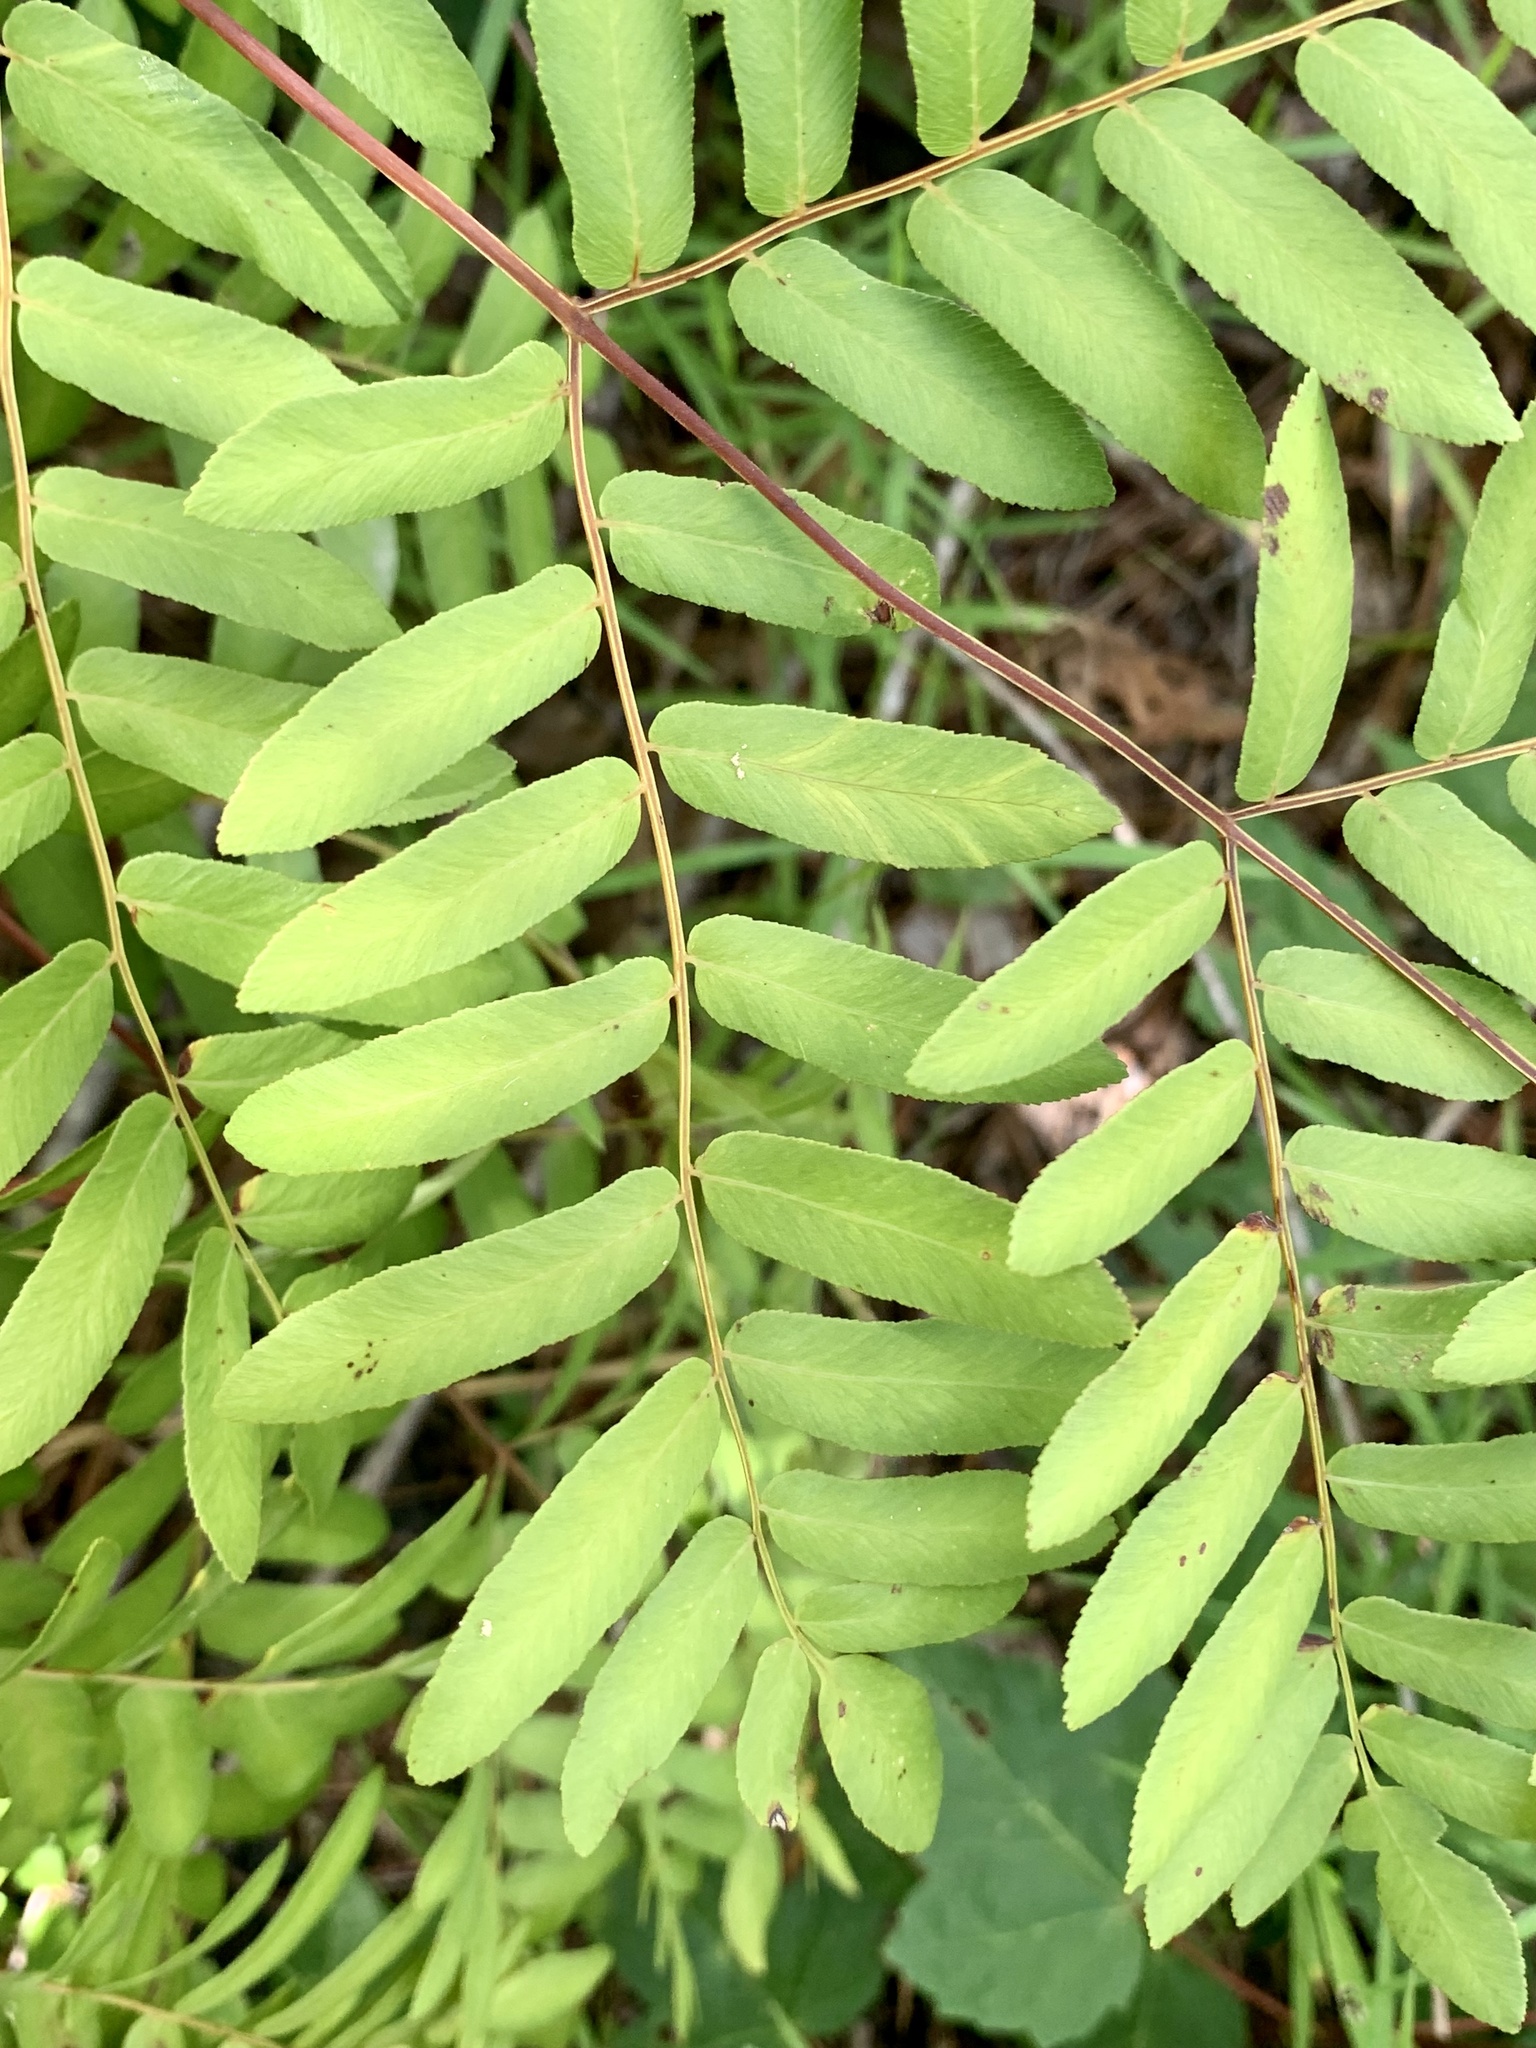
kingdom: Plantae
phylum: Tracheophyta
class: Polypodiopsida
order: Osmundales
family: Osmundaceae
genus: Osmunda
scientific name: Osmunda spectabilis
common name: American royal fern
